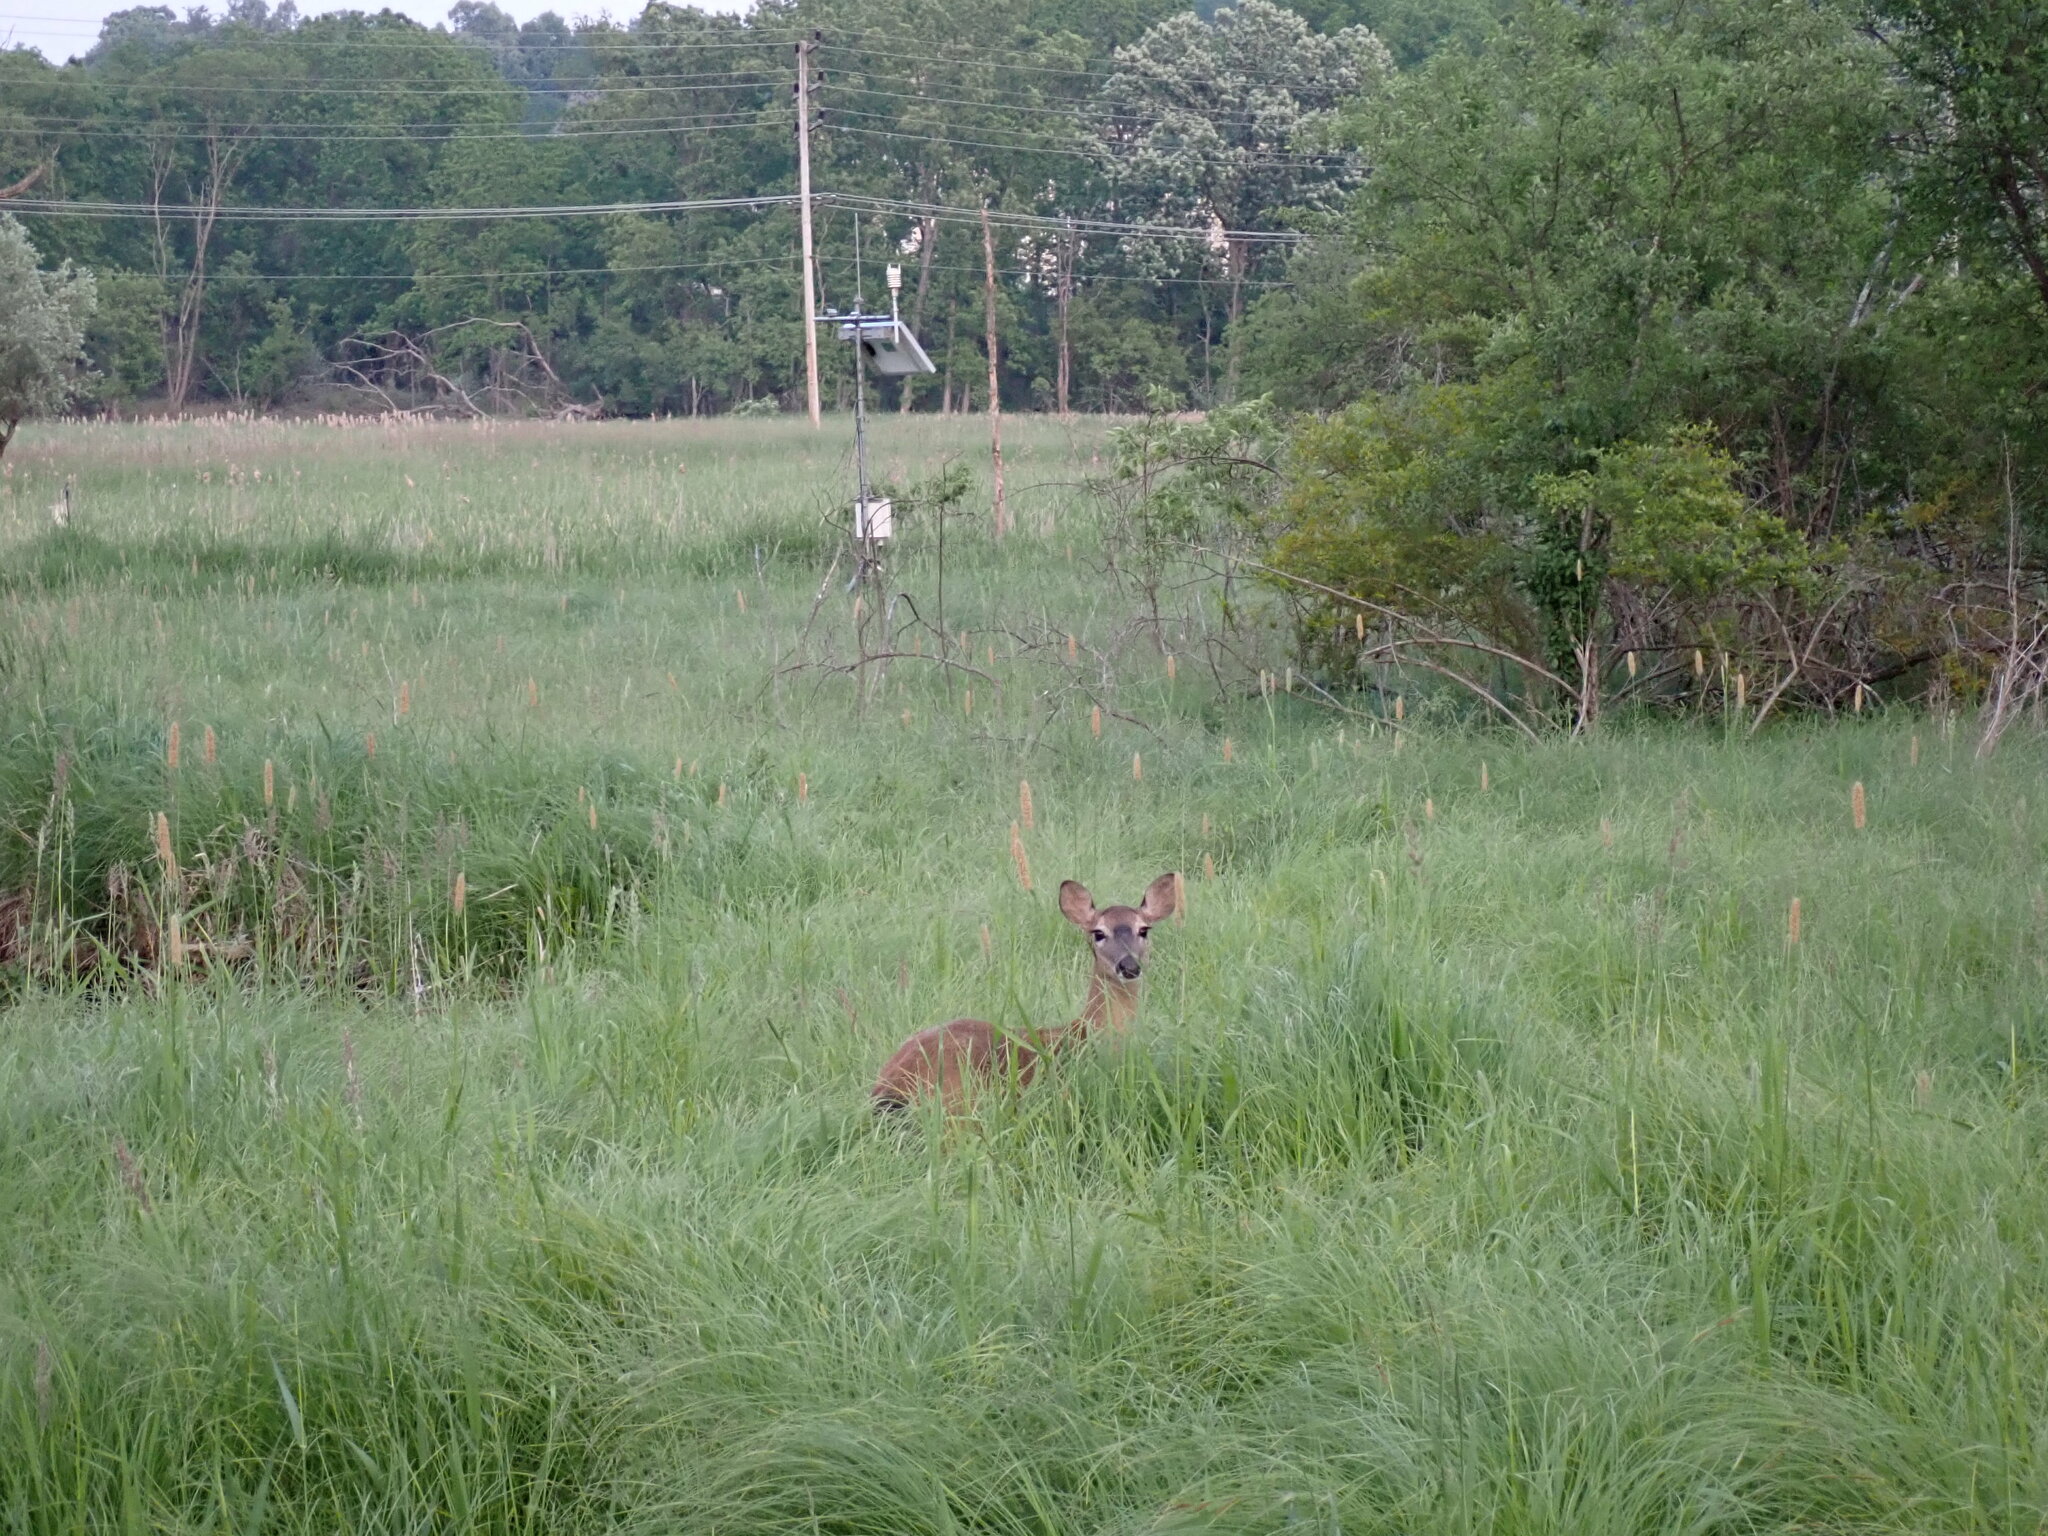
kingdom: Animalia
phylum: Chordata
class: Mammalia
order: Artiodactyla
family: Cervidae
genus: Odocoileus
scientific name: Odocoileus virginianus
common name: White-tailed deer
